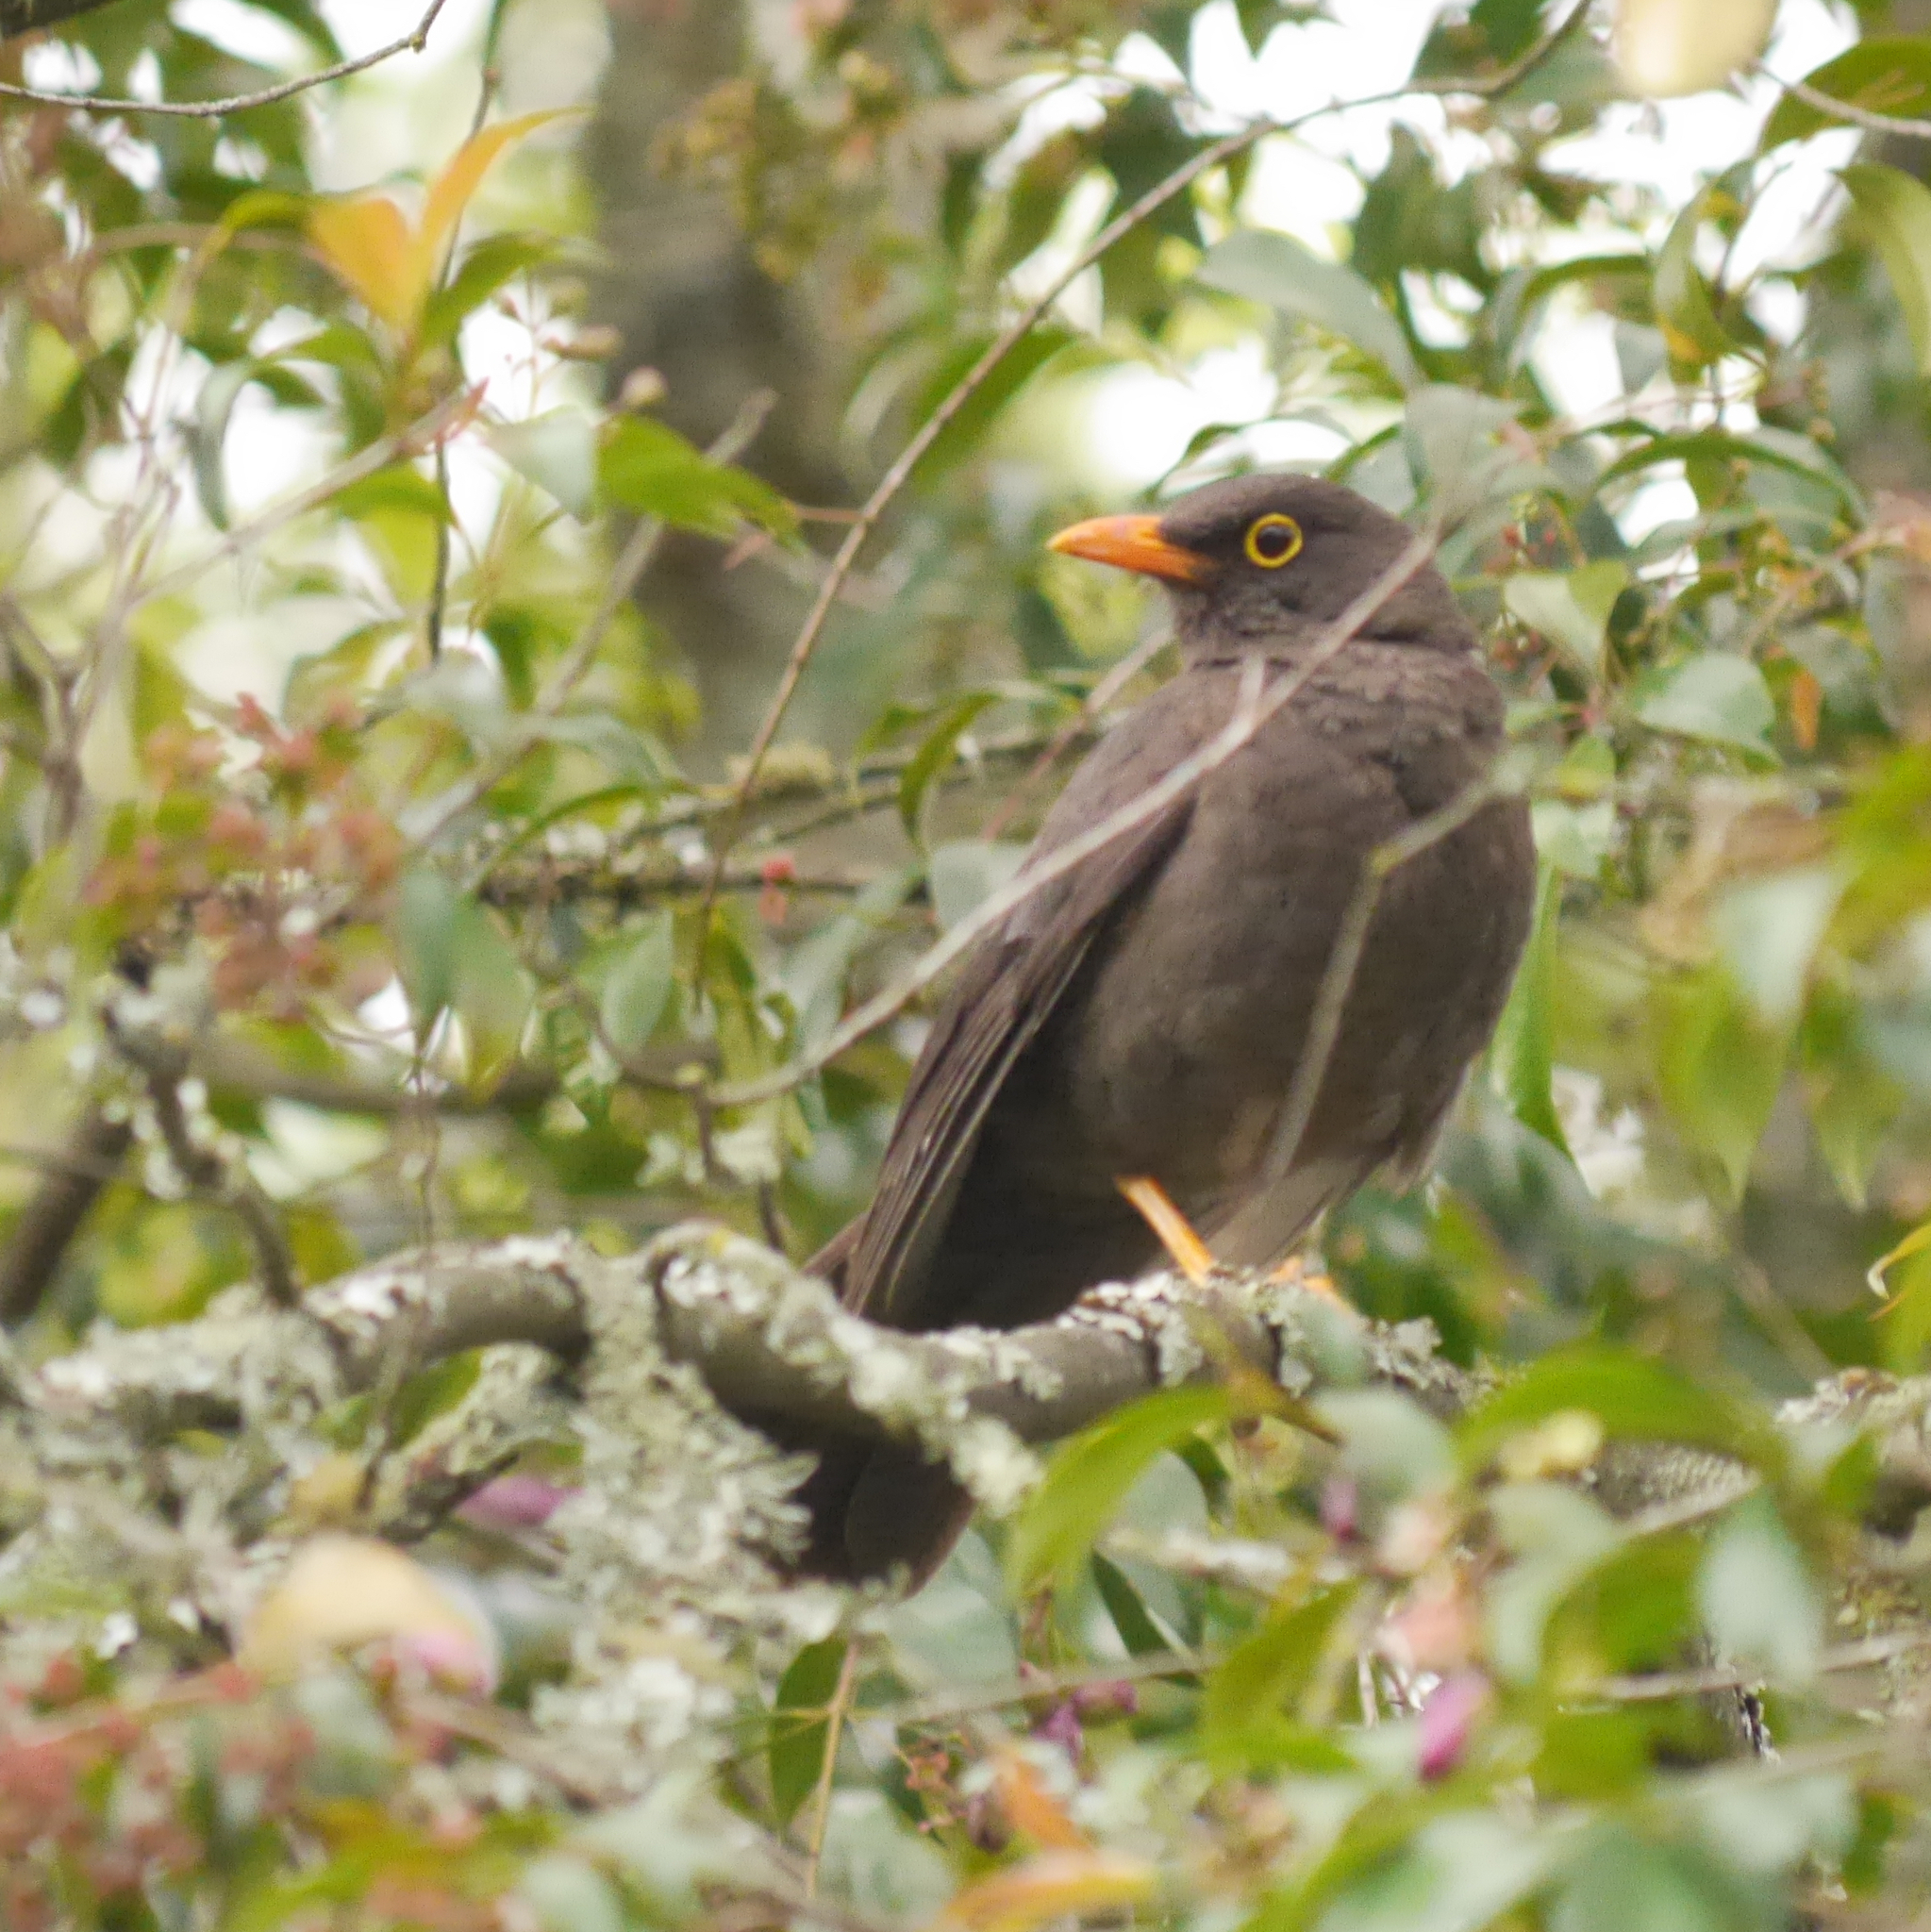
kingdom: Animalia
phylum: Chordata
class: Aves
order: Passeriformes
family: Turdidae
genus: Turdus
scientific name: Turdus fuscater
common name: Great thrush
